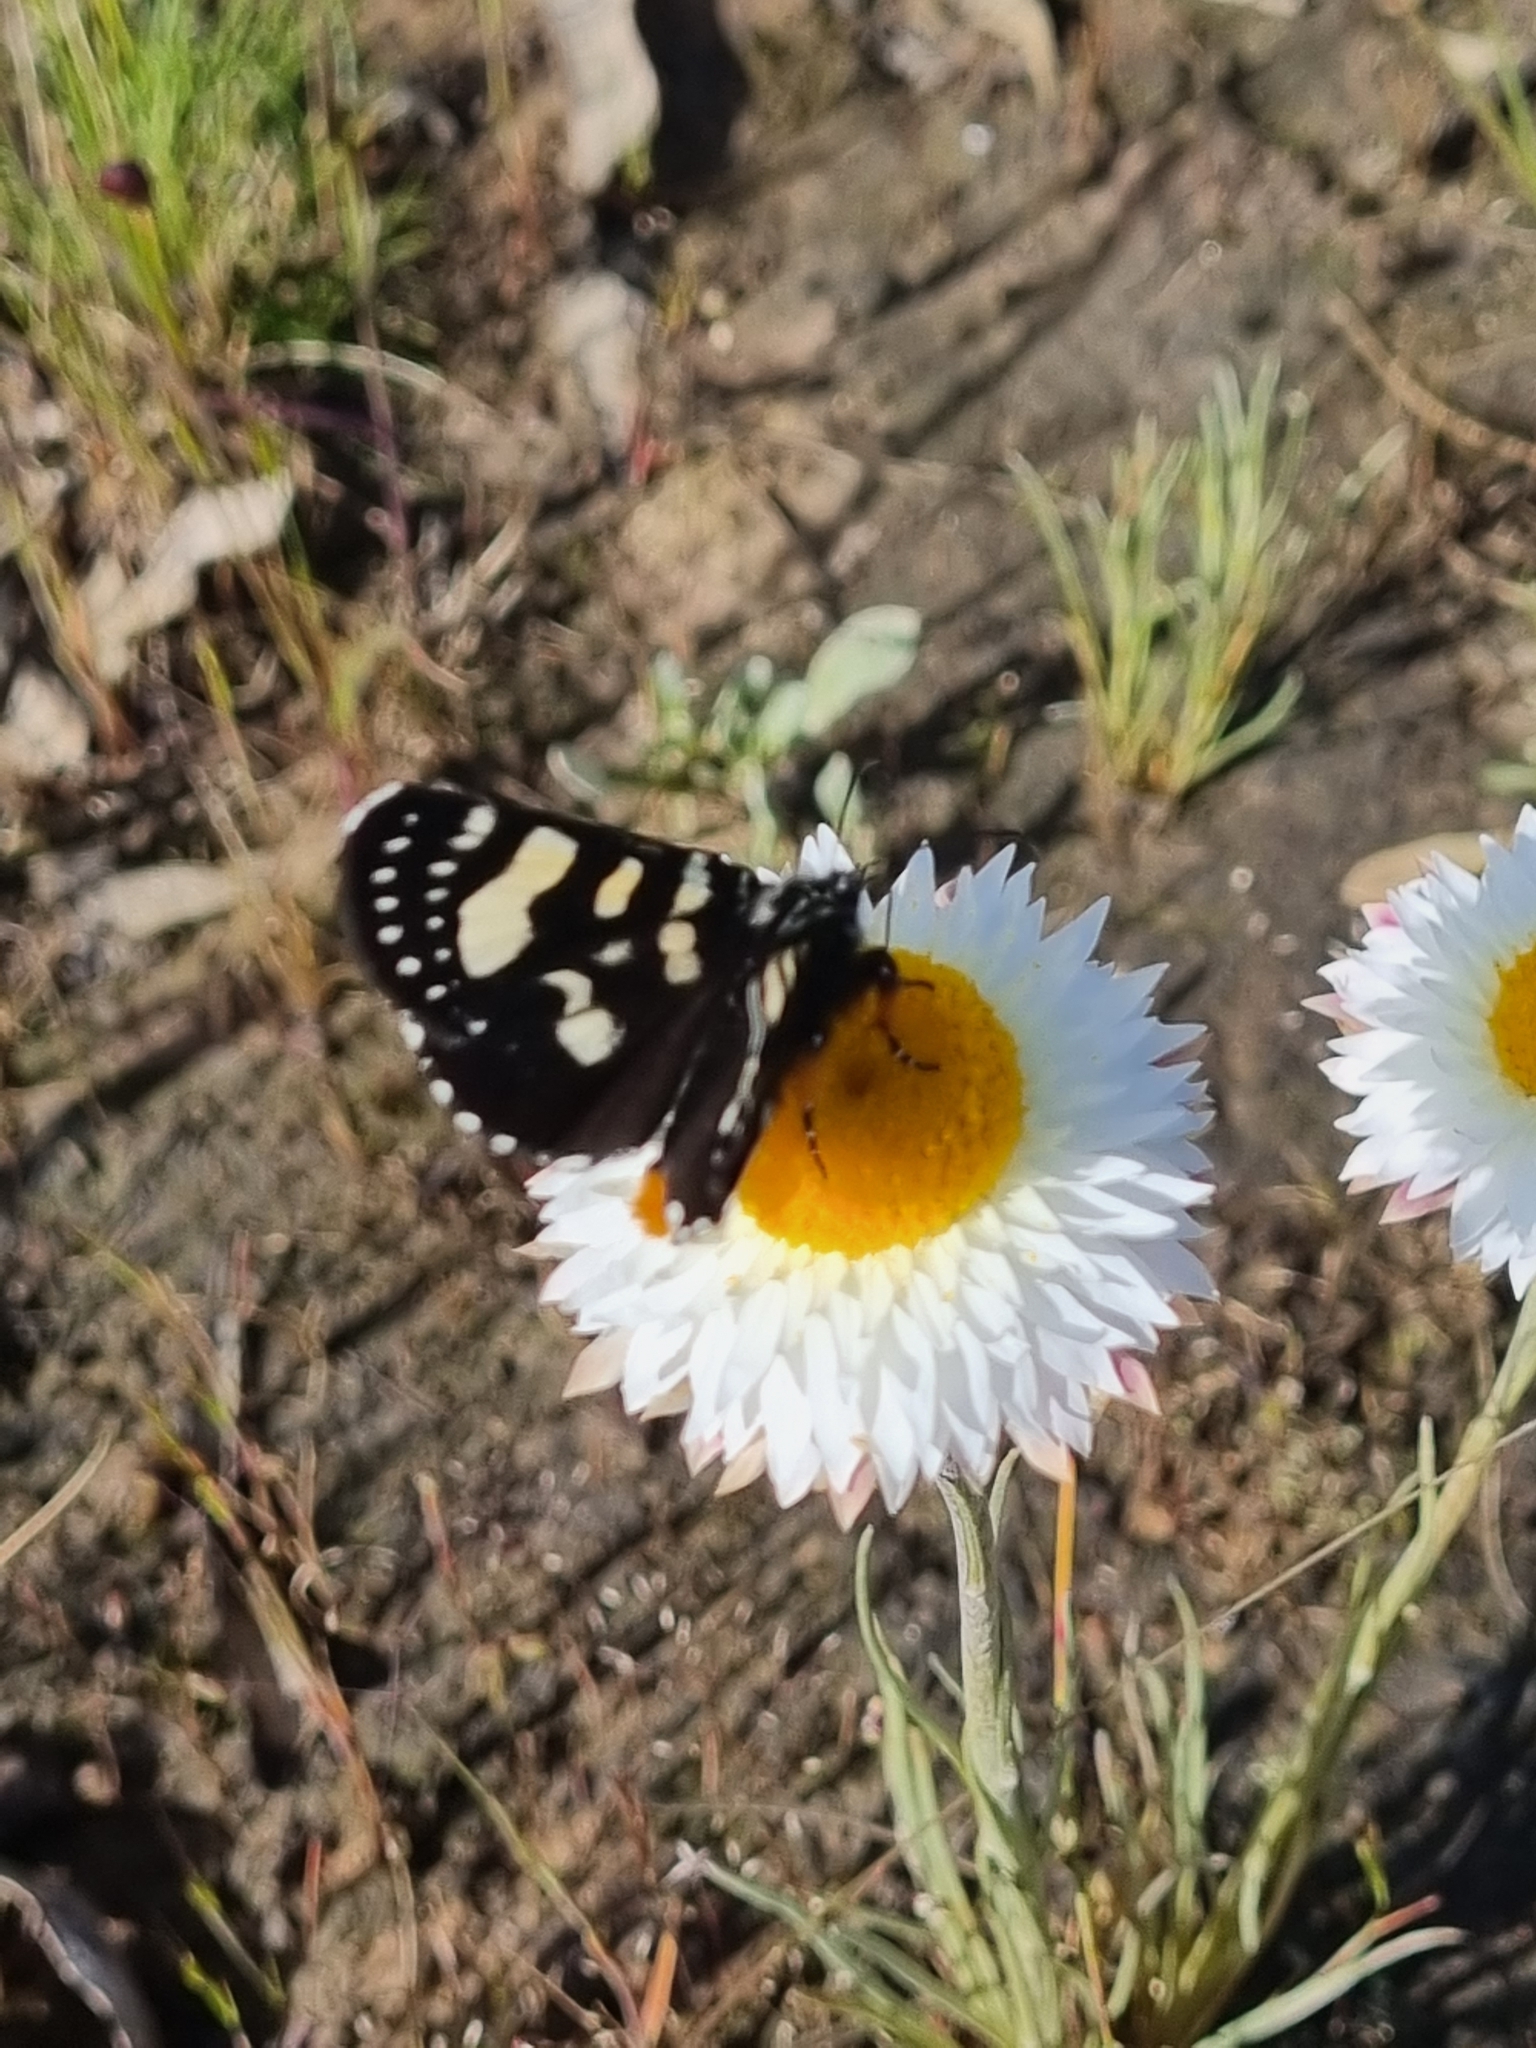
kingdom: Animalia
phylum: Arthropoda
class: Insecta
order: Lepidoptera
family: Noctuidae
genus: Phalaenoides
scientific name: Phalaenoides tristifica
